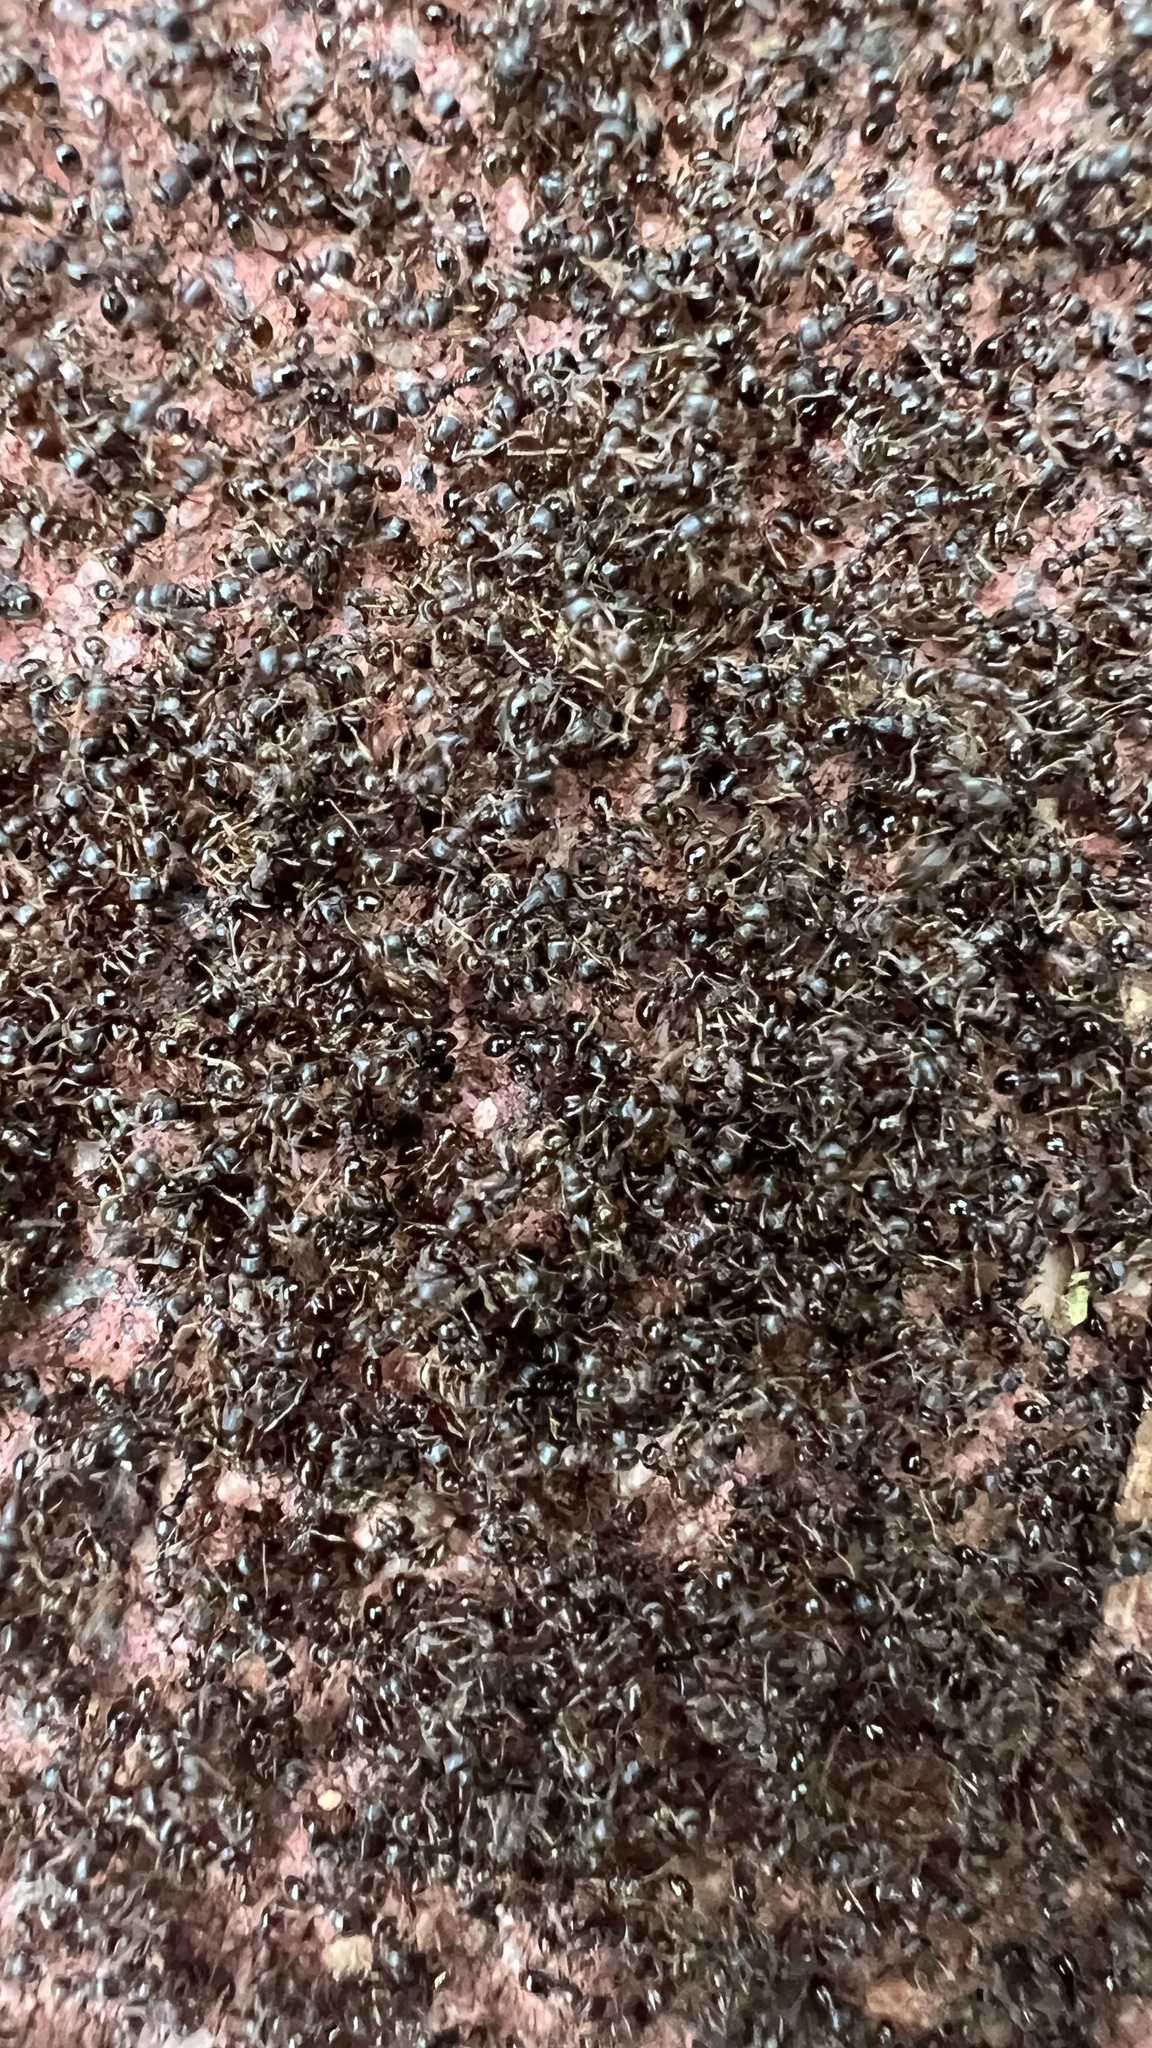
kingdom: Animalia
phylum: Arthropoda
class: Insecta
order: Hymenoptera
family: Formicidae
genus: Tetramorium
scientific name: Tetramorium immigrans
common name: Pavement ant
